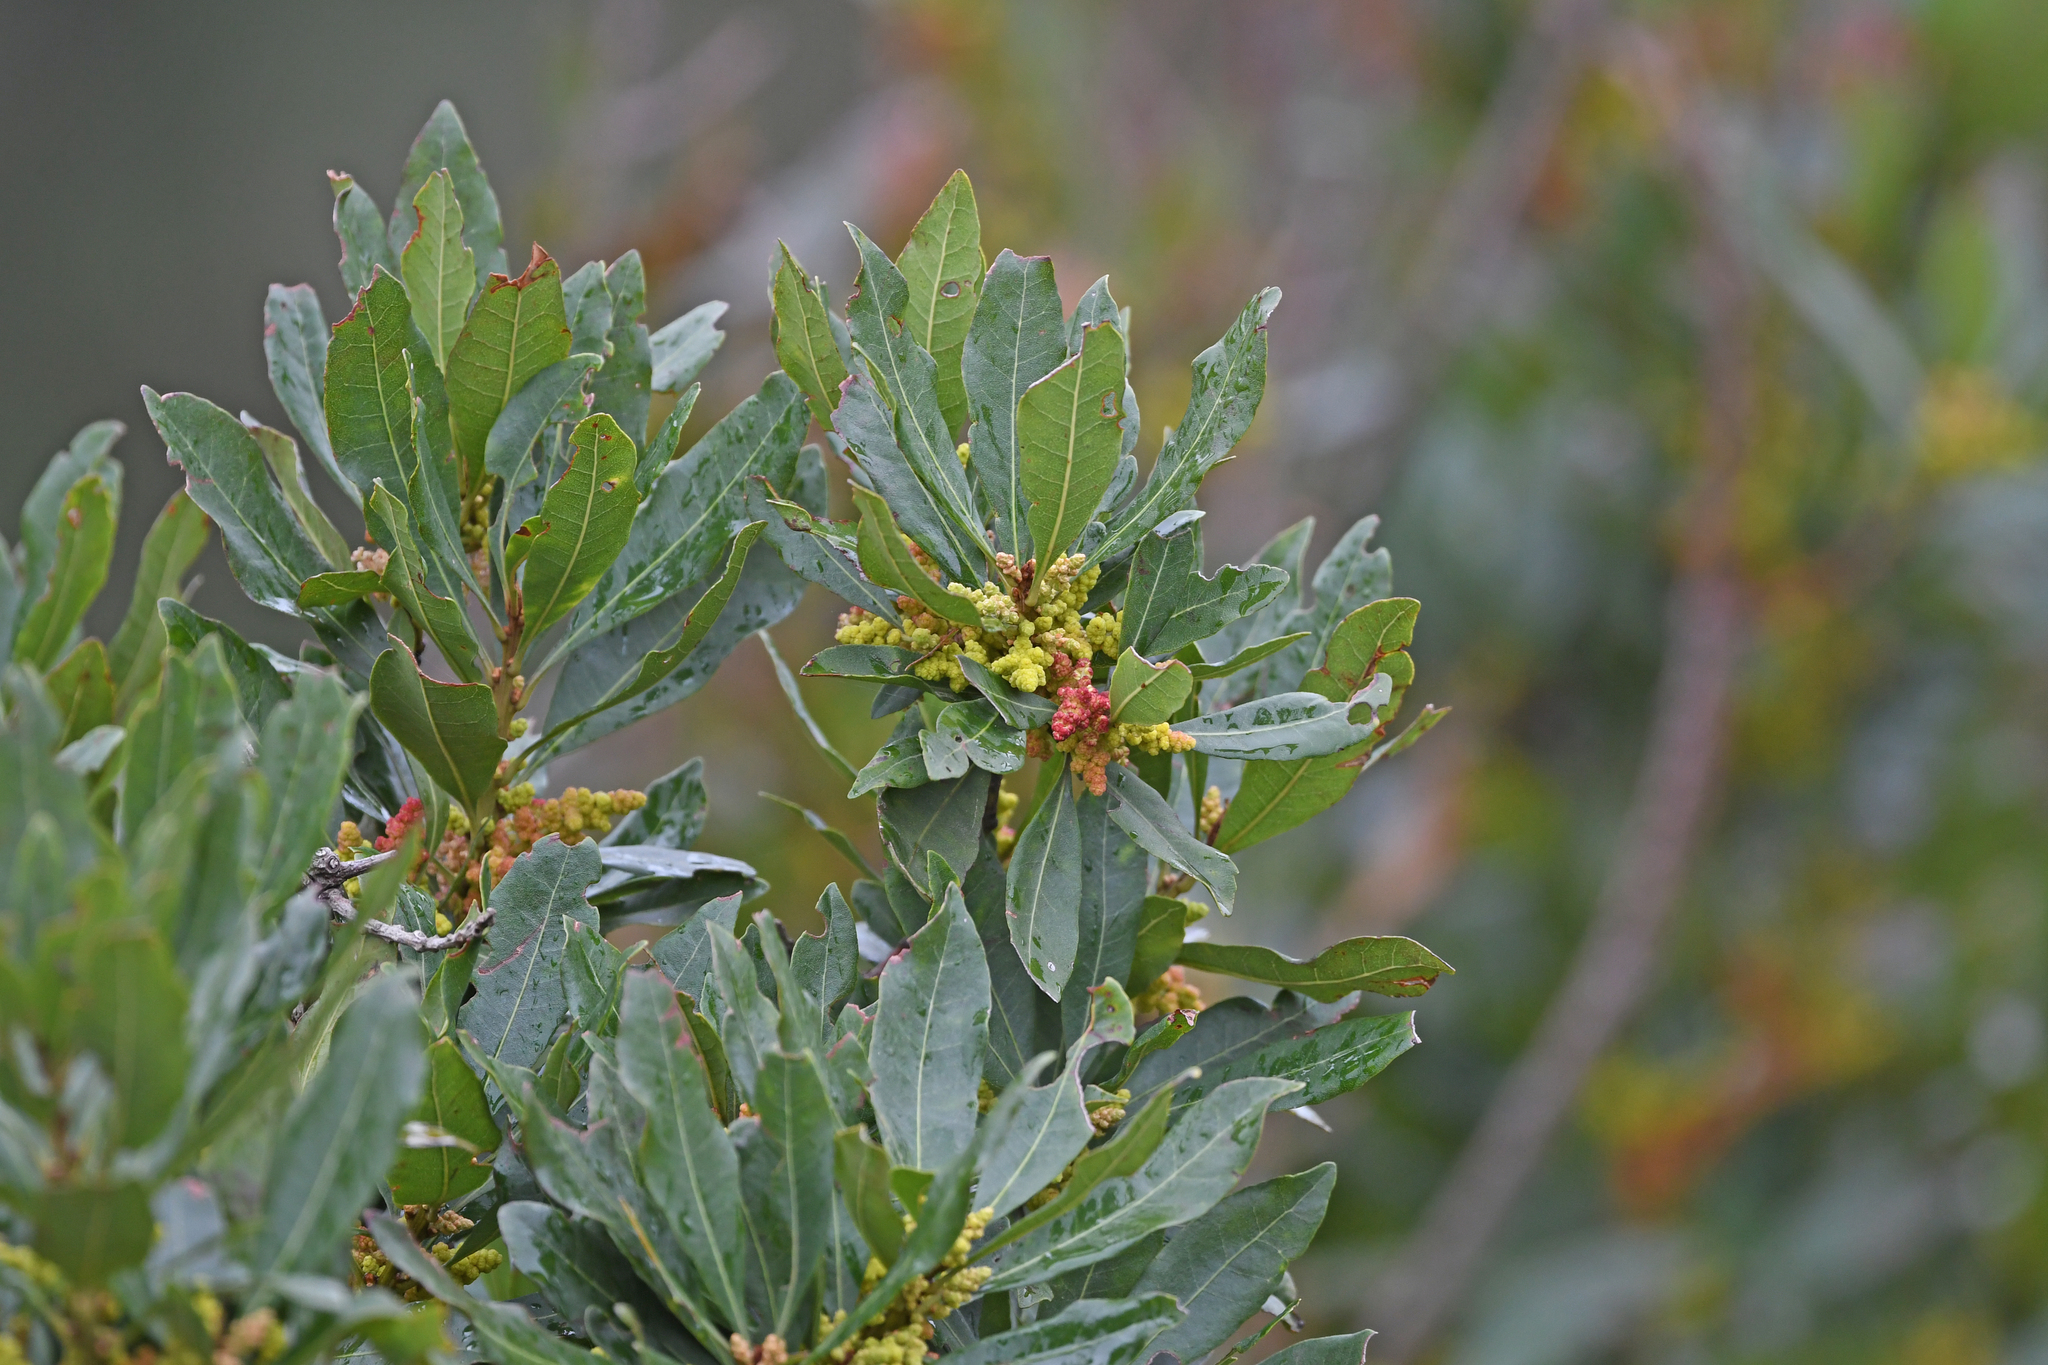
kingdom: Plantae
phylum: Tracheophyta
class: Magnoliopsida
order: Fagales
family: Myricaceae
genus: Morella
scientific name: Morella faya
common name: Firetree
